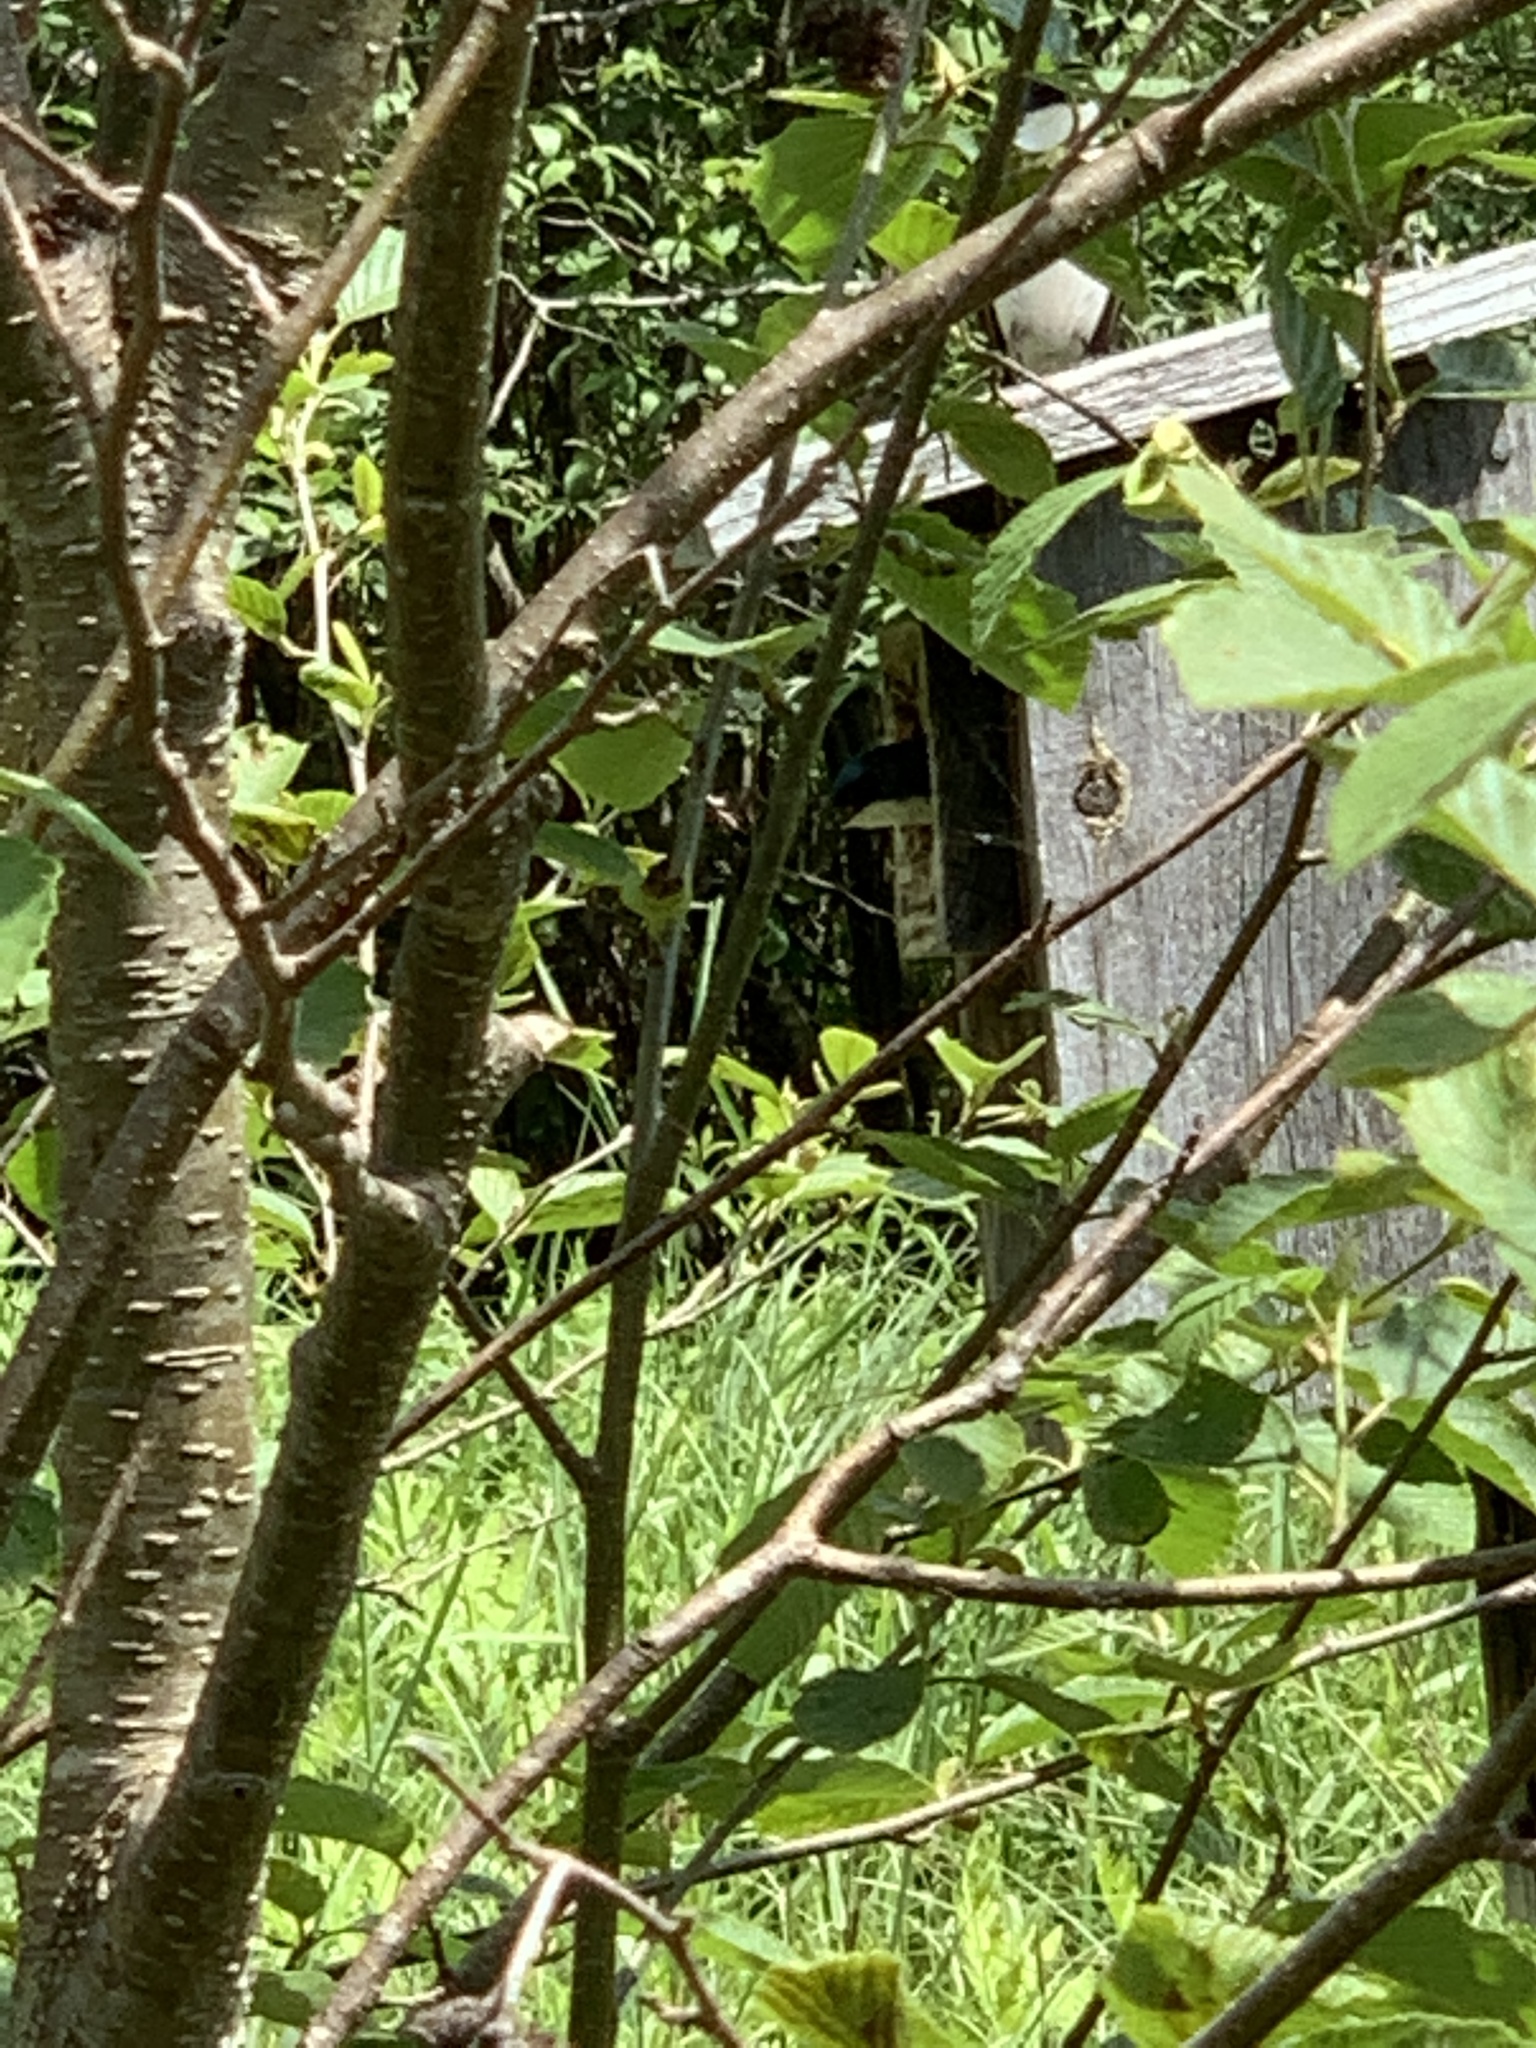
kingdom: Animalia
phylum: Chordata
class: Aves
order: Passeriformes
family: Hirundinidae
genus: Tachycineta
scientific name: Tachycineta bicolor
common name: Tree swallow
